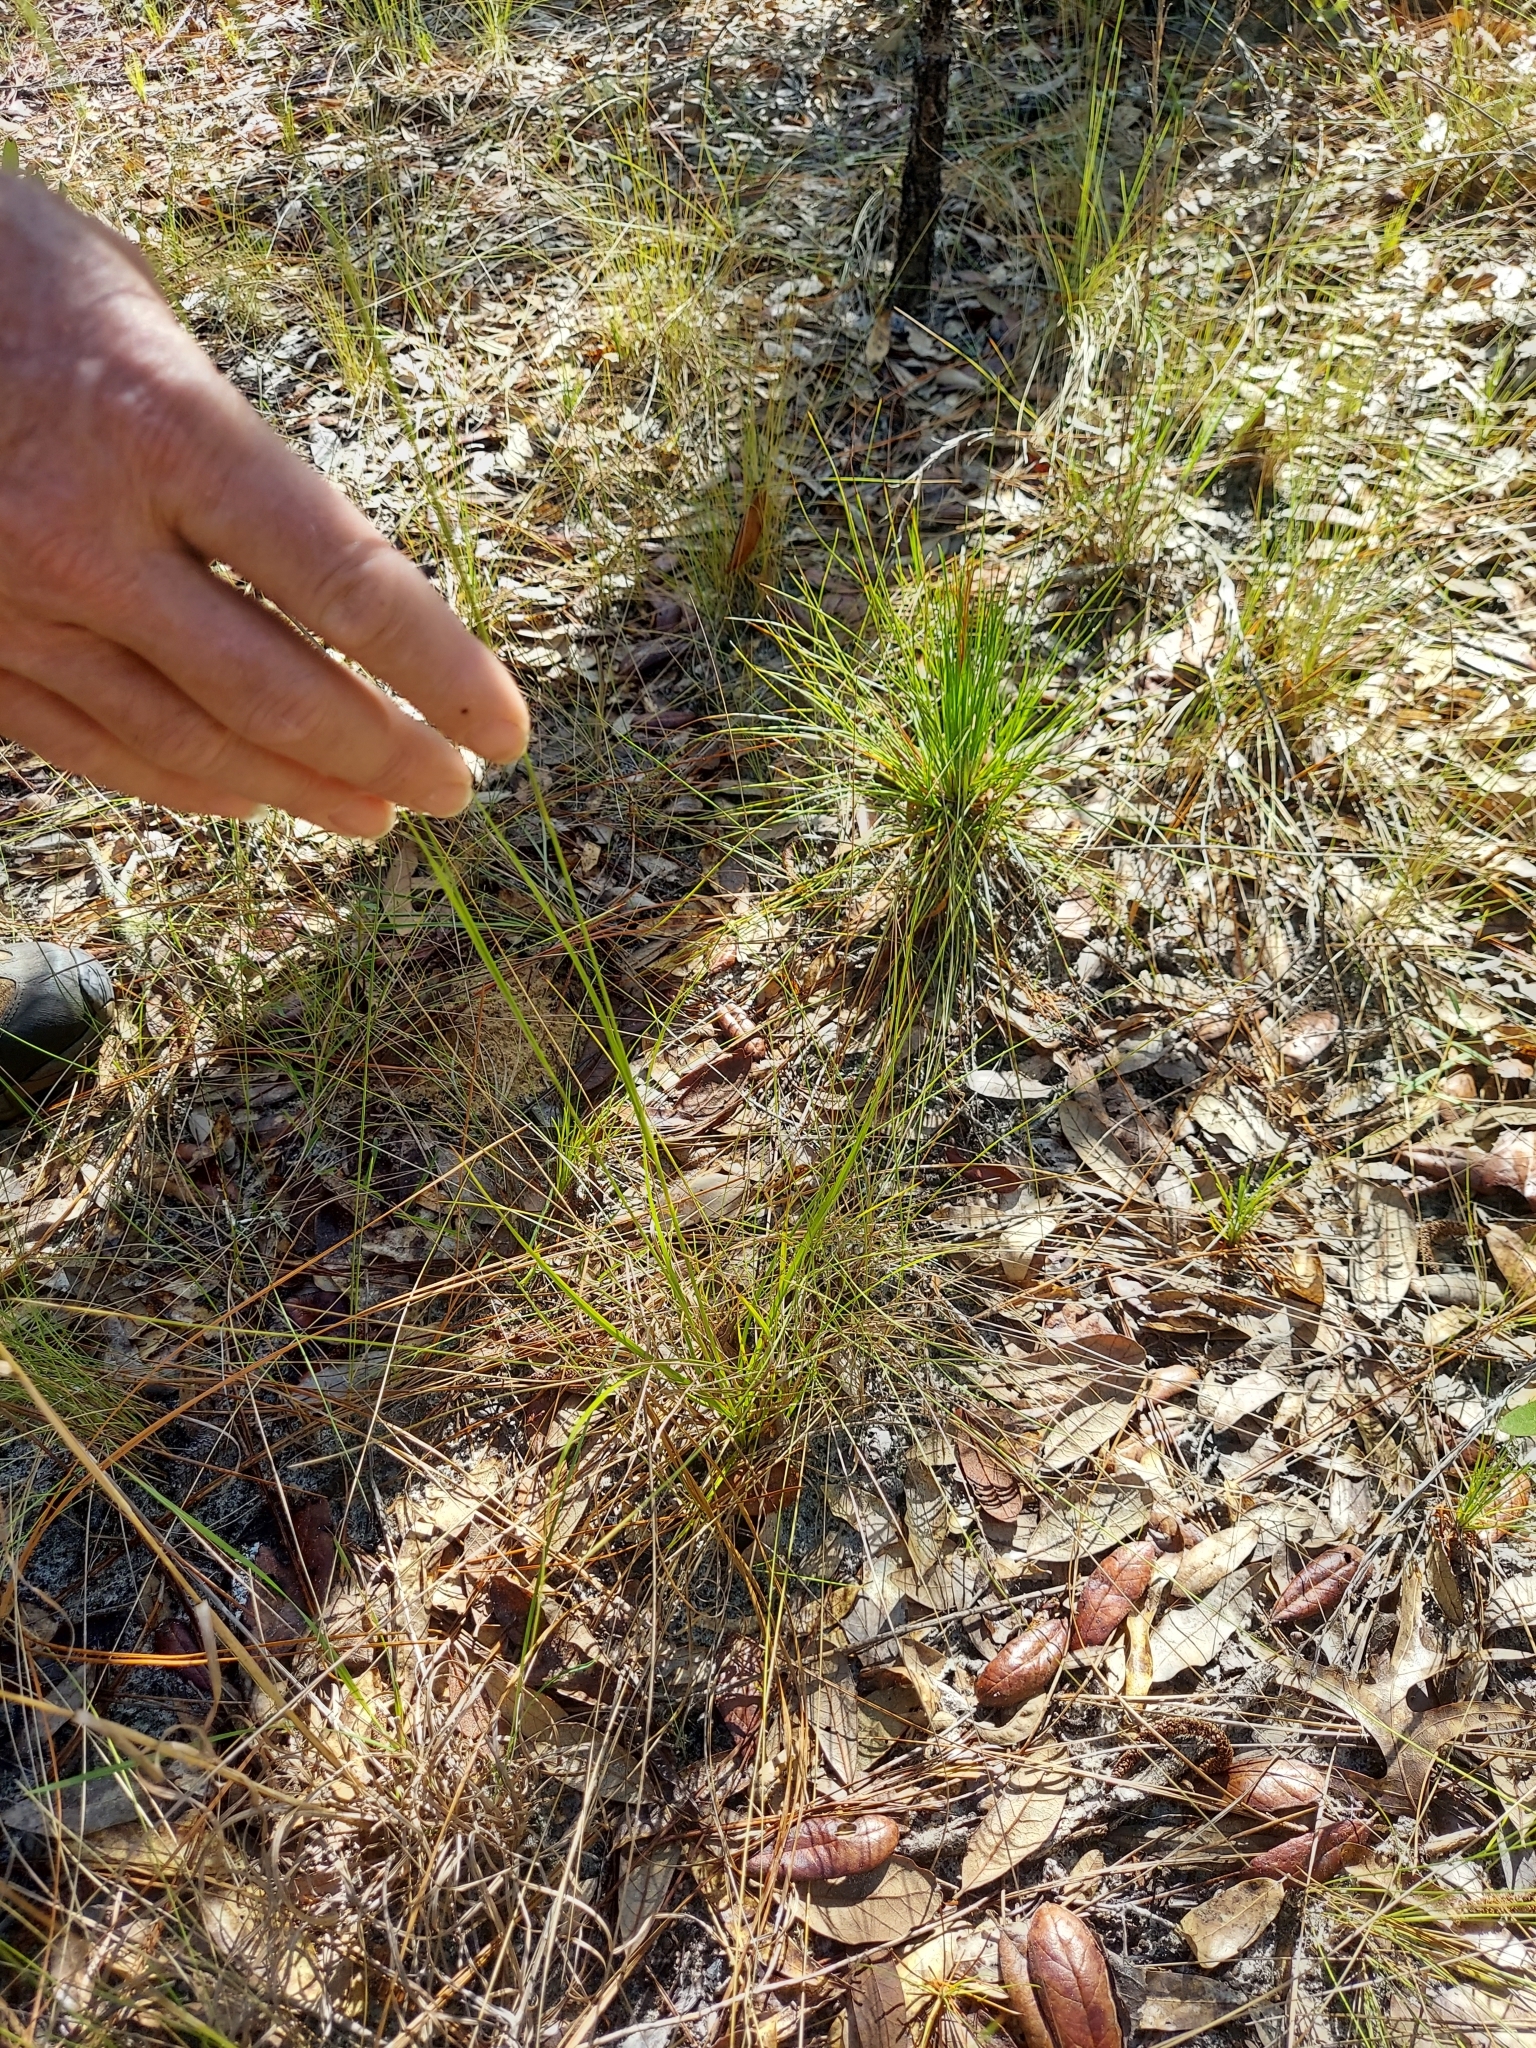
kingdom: Plantae
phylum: Tracheophyta
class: Liliopsida
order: Poales
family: Cyperaceae
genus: Rhynchospora
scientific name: Rhynchospora grayi
